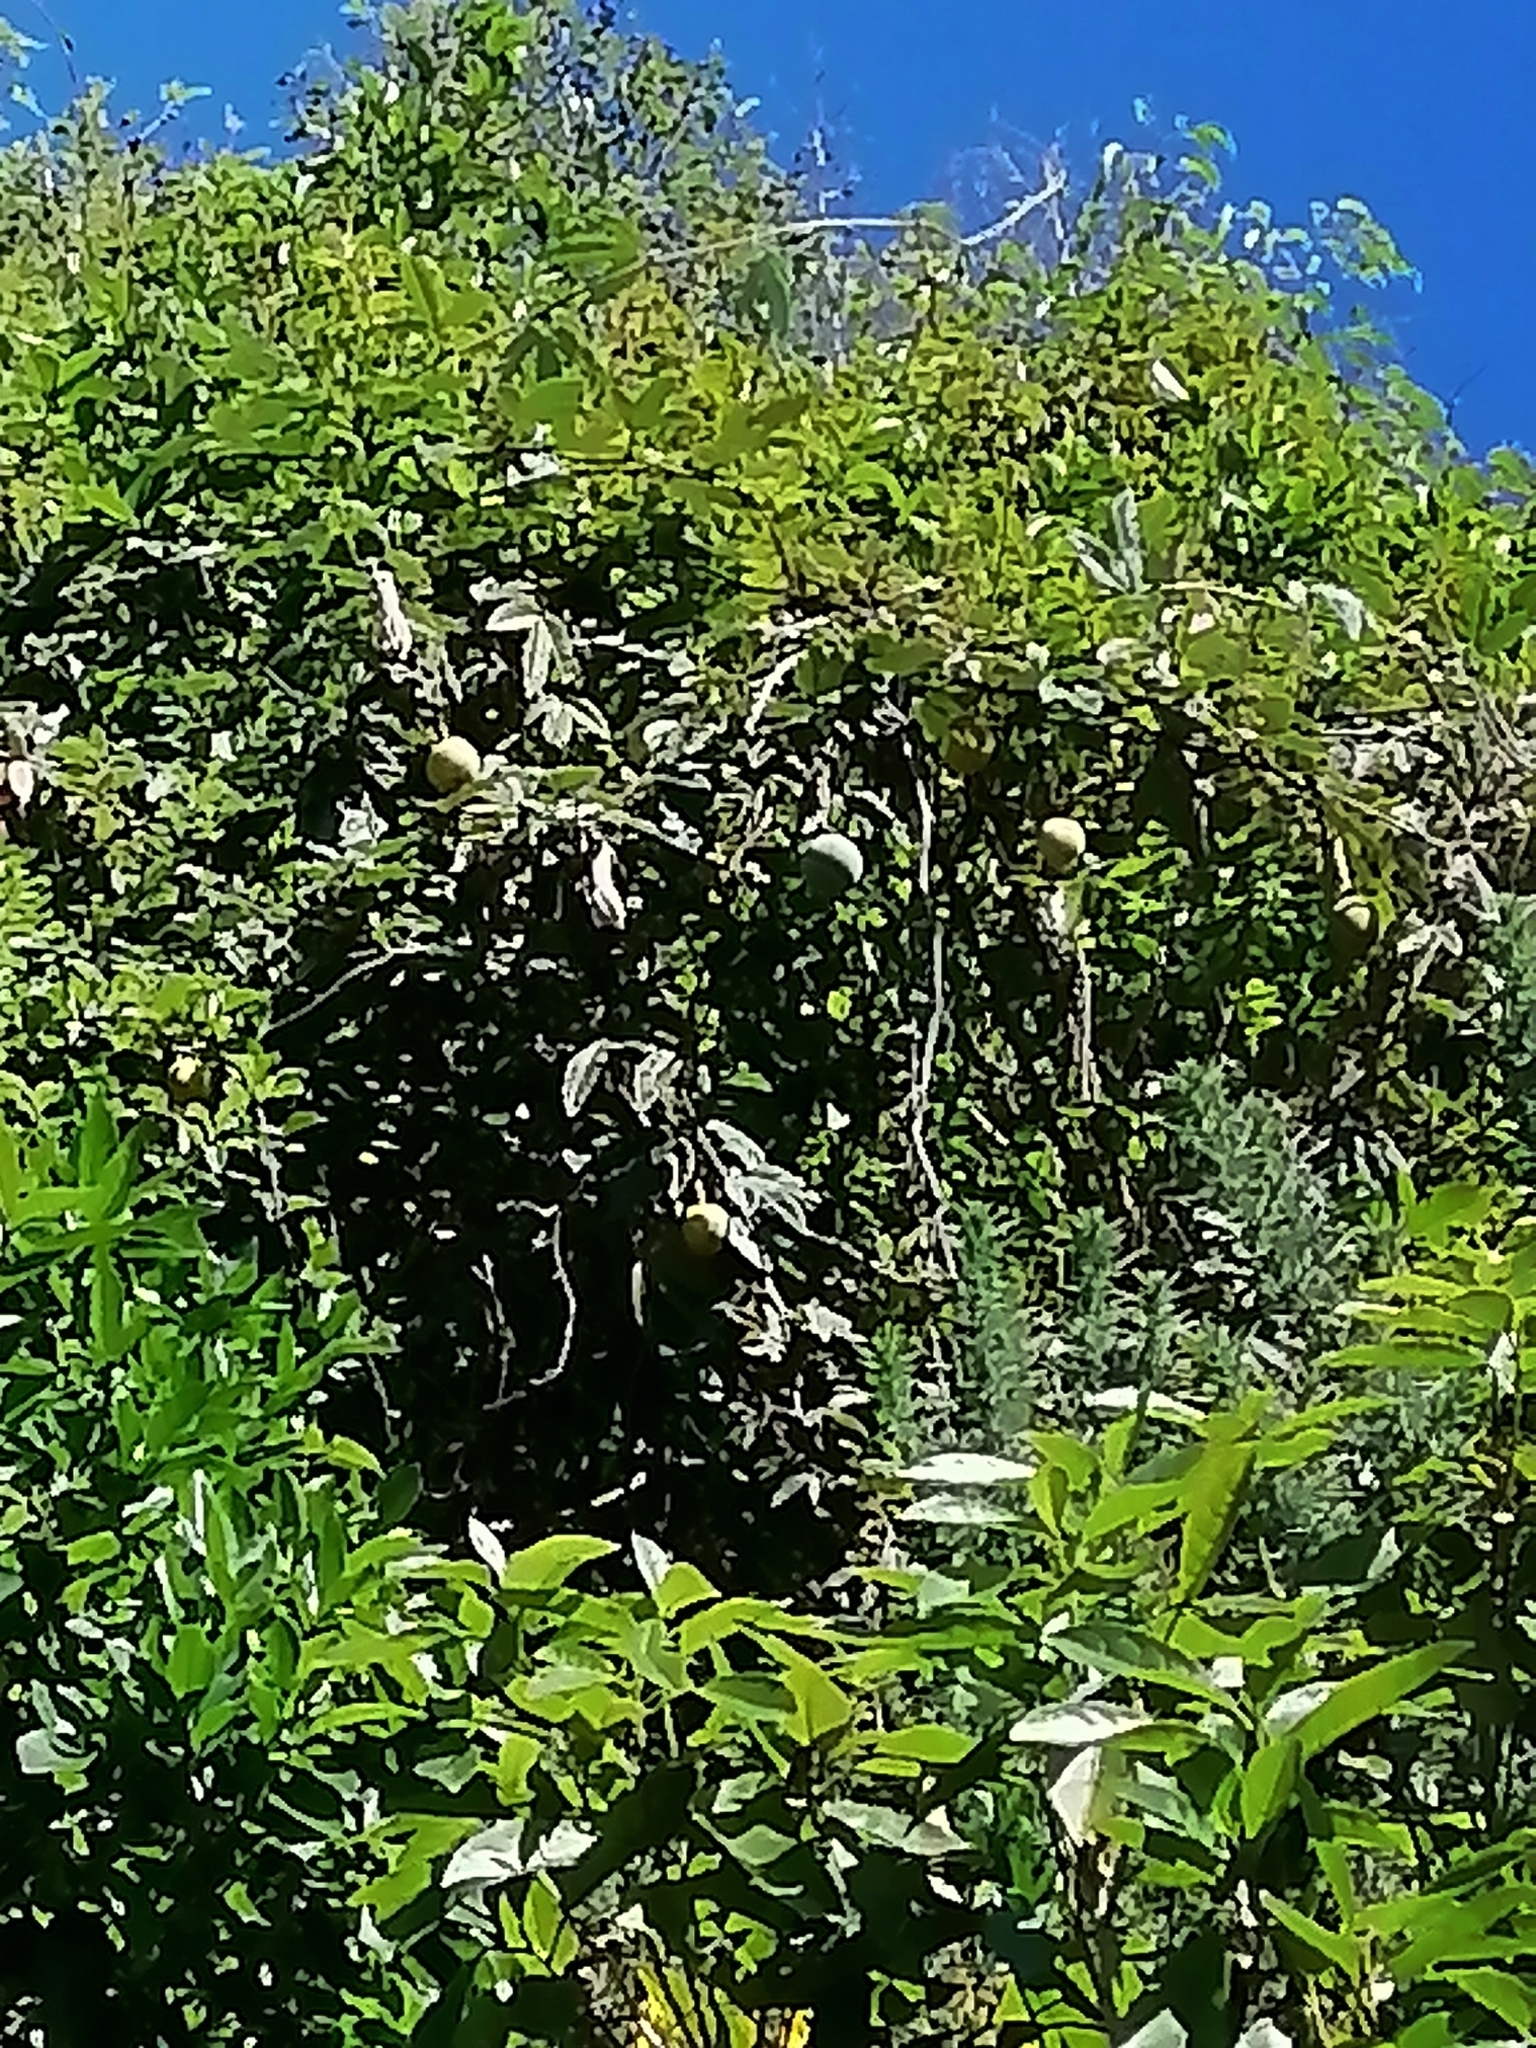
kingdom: Plantae
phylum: Tracheophyta
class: Magnoliopsida
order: Malpighiales
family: Passifloraceae
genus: Passiflora
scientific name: Passiflora pinnatistipula
